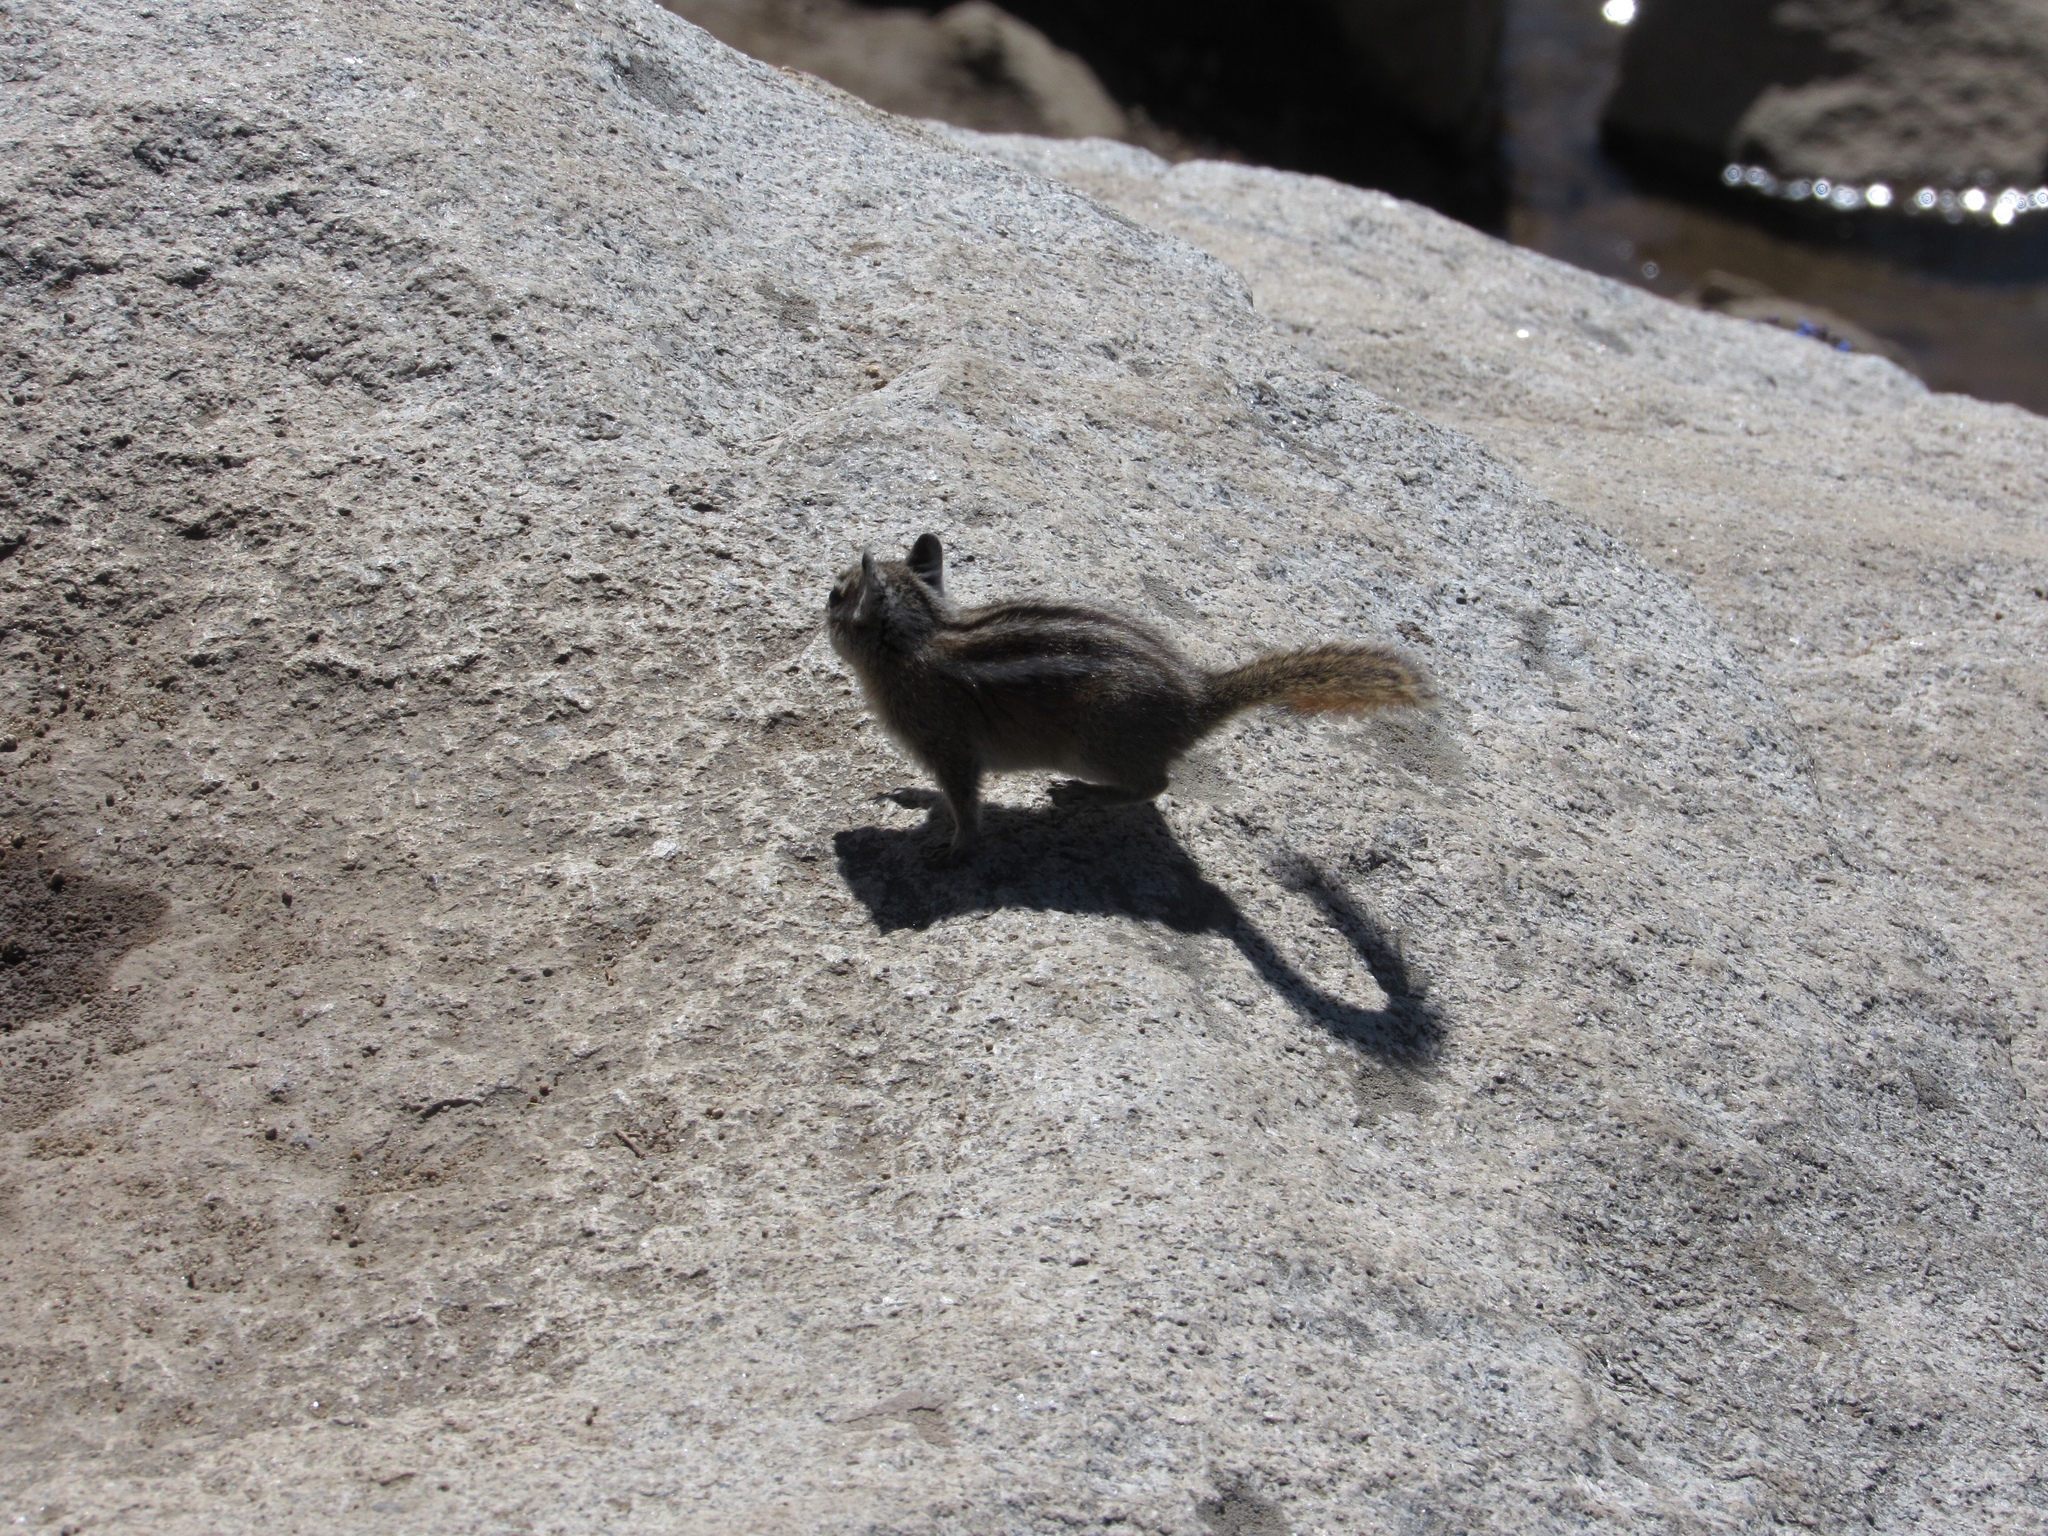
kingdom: Animalia
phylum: Chordata
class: Mammalia
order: Rodentia
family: Sciuridae
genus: Callospermophilus
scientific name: Callospermophilus lateralis
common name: Golden-mantled ground squirrel
